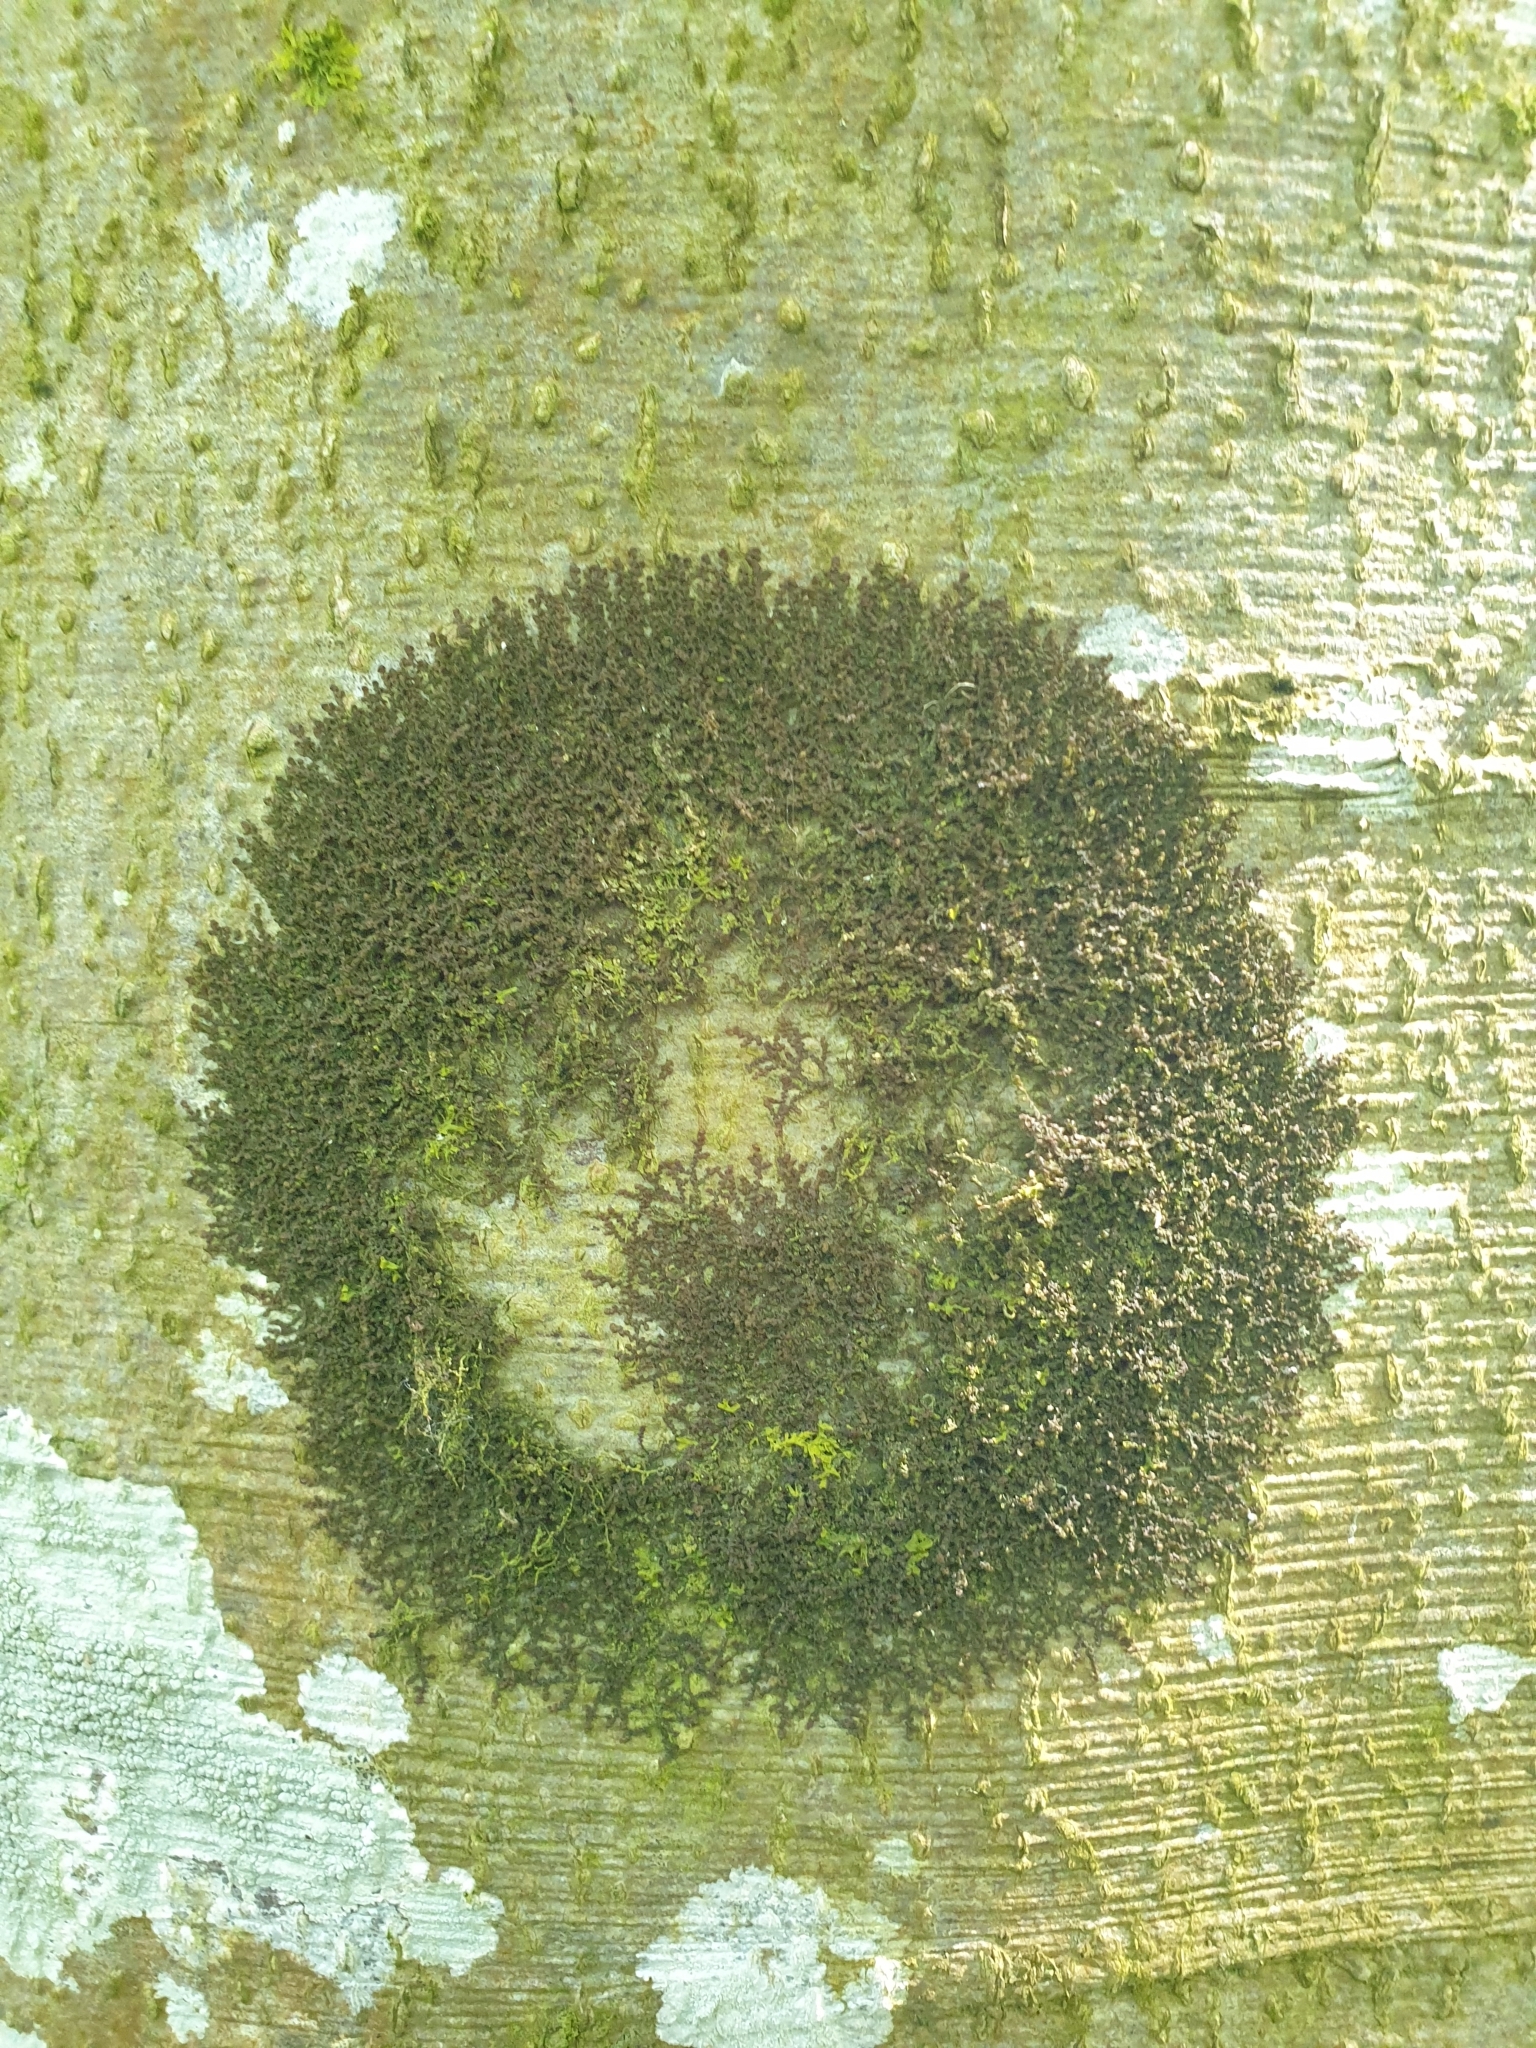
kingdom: Plantae
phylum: Marchantiophyta
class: Jungermanniopsida
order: Porellales
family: Frullaniaceae
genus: Frullania
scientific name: Frullania dilatata
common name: Dilated scalewort
